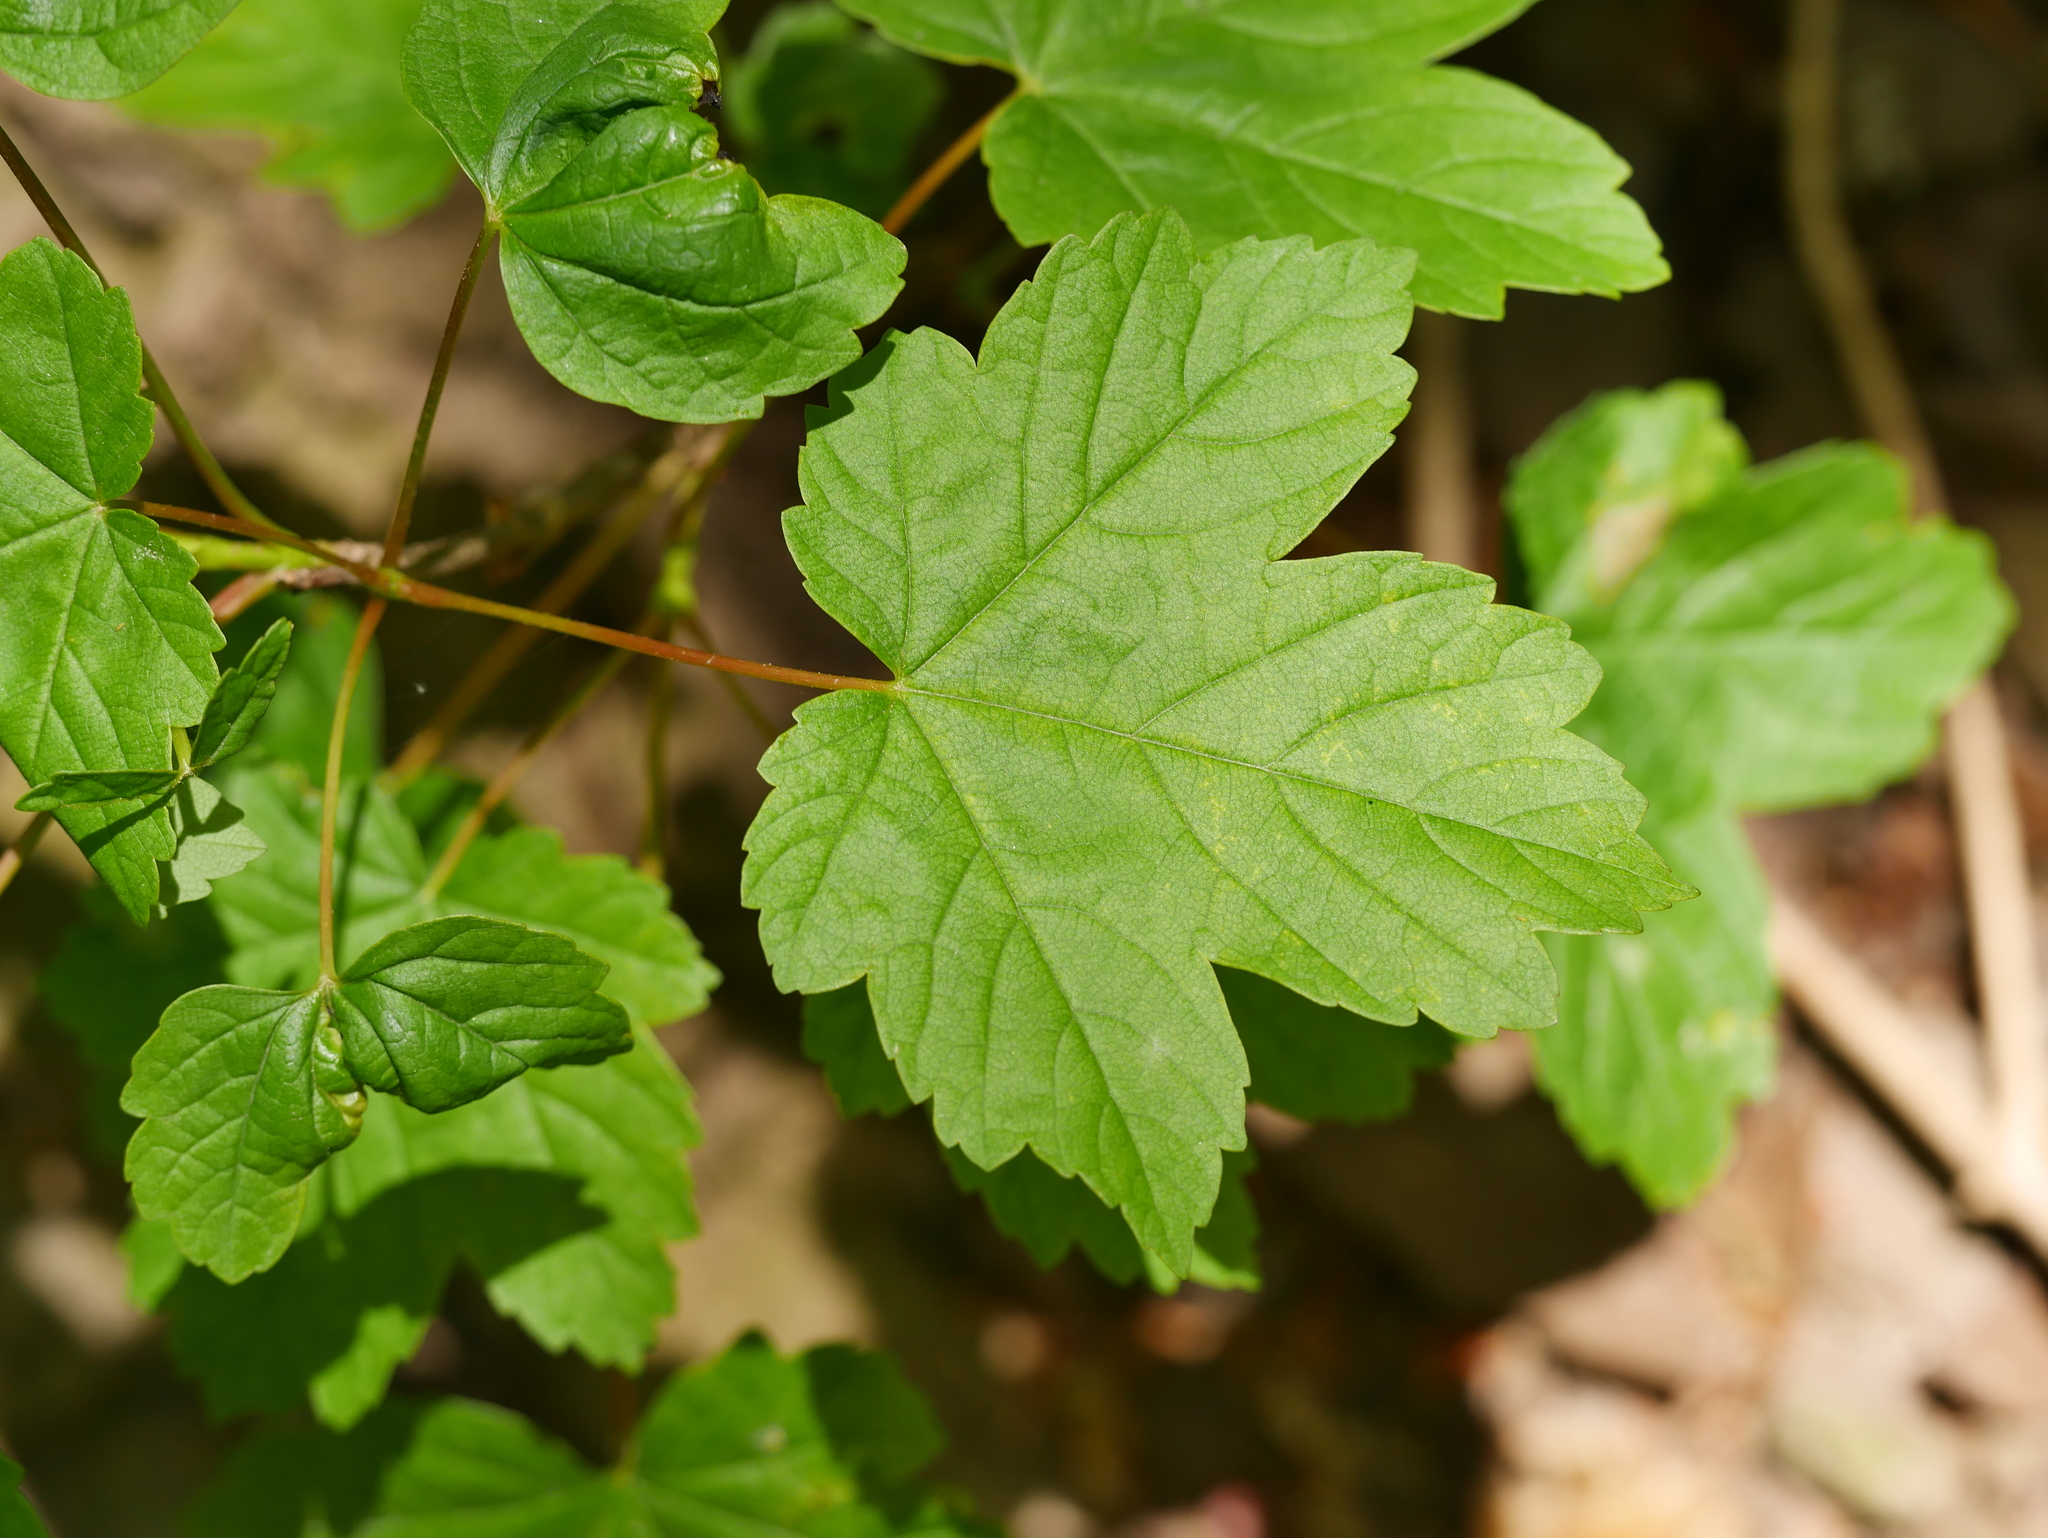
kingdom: Plantae
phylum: Tracheophyta
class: Magnoliopsida
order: Sapindales
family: Sapindaceae
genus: Acer
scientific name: Acer pseudoplatanus
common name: Sycamore
